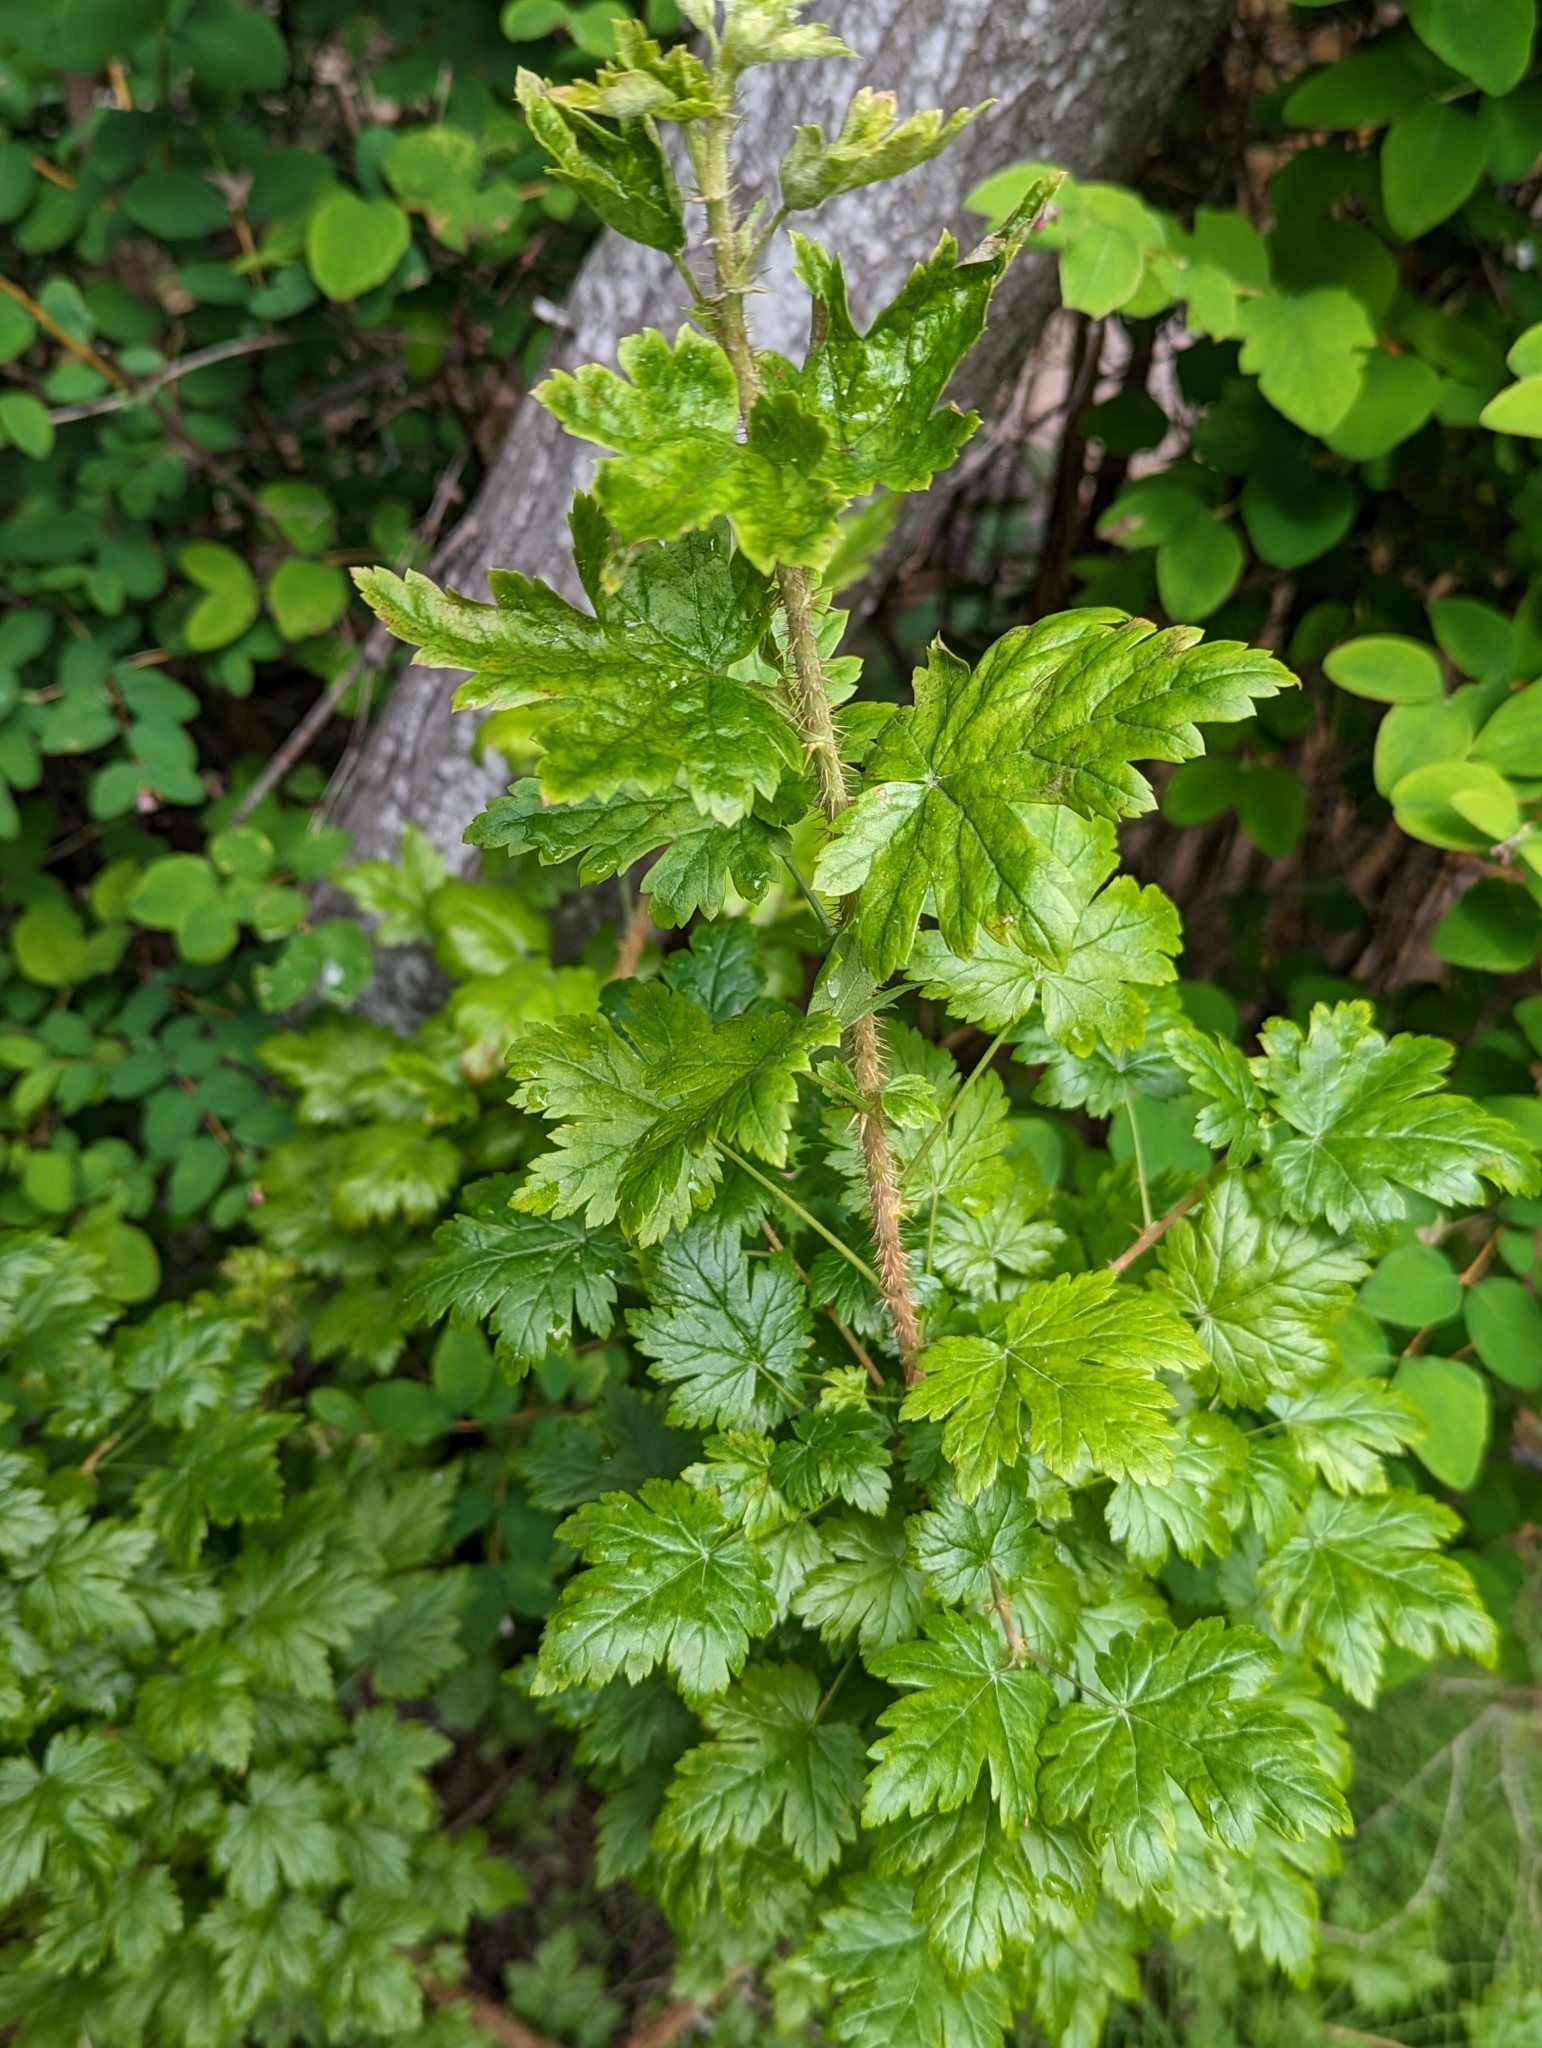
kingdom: Plantae
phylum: Tracheophyta
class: Magnoliopsida
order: Saxifragales
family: Grossulariaceae
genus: Ribes
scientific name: Ribes lacustre
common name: Black gooseberry
